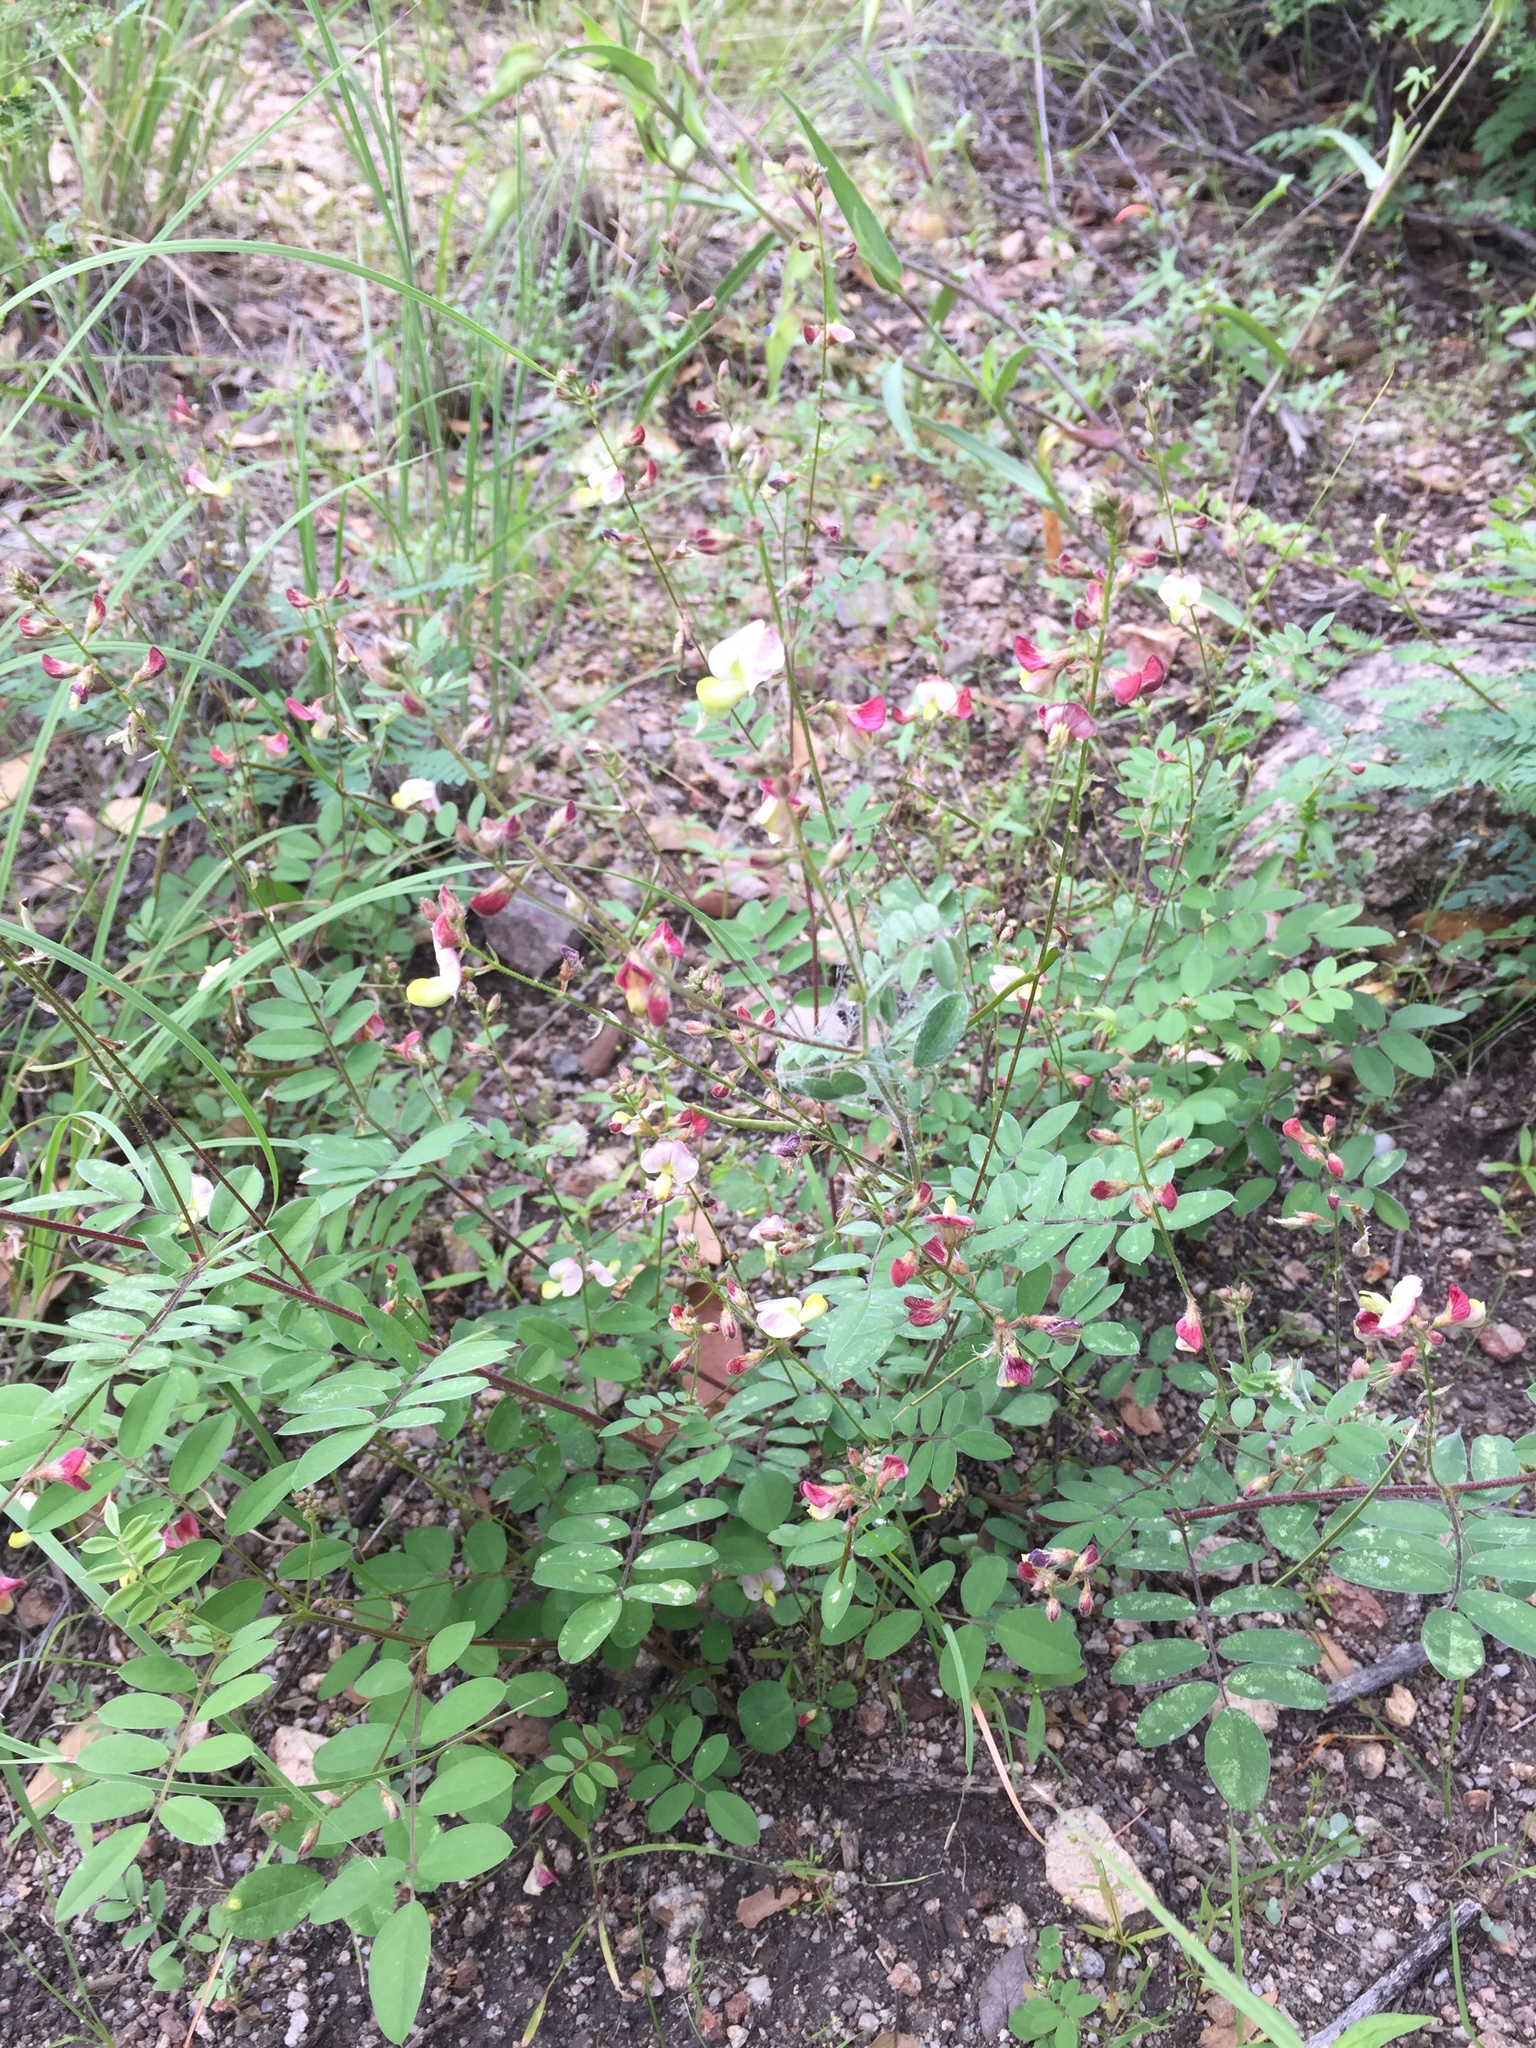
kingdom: Plantae
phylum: Tracheophyta
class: Magnoliopsida
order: Fabales
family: Fabaceae
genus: Coursetia
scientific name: Coursetia caribaea
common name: Anil falso
